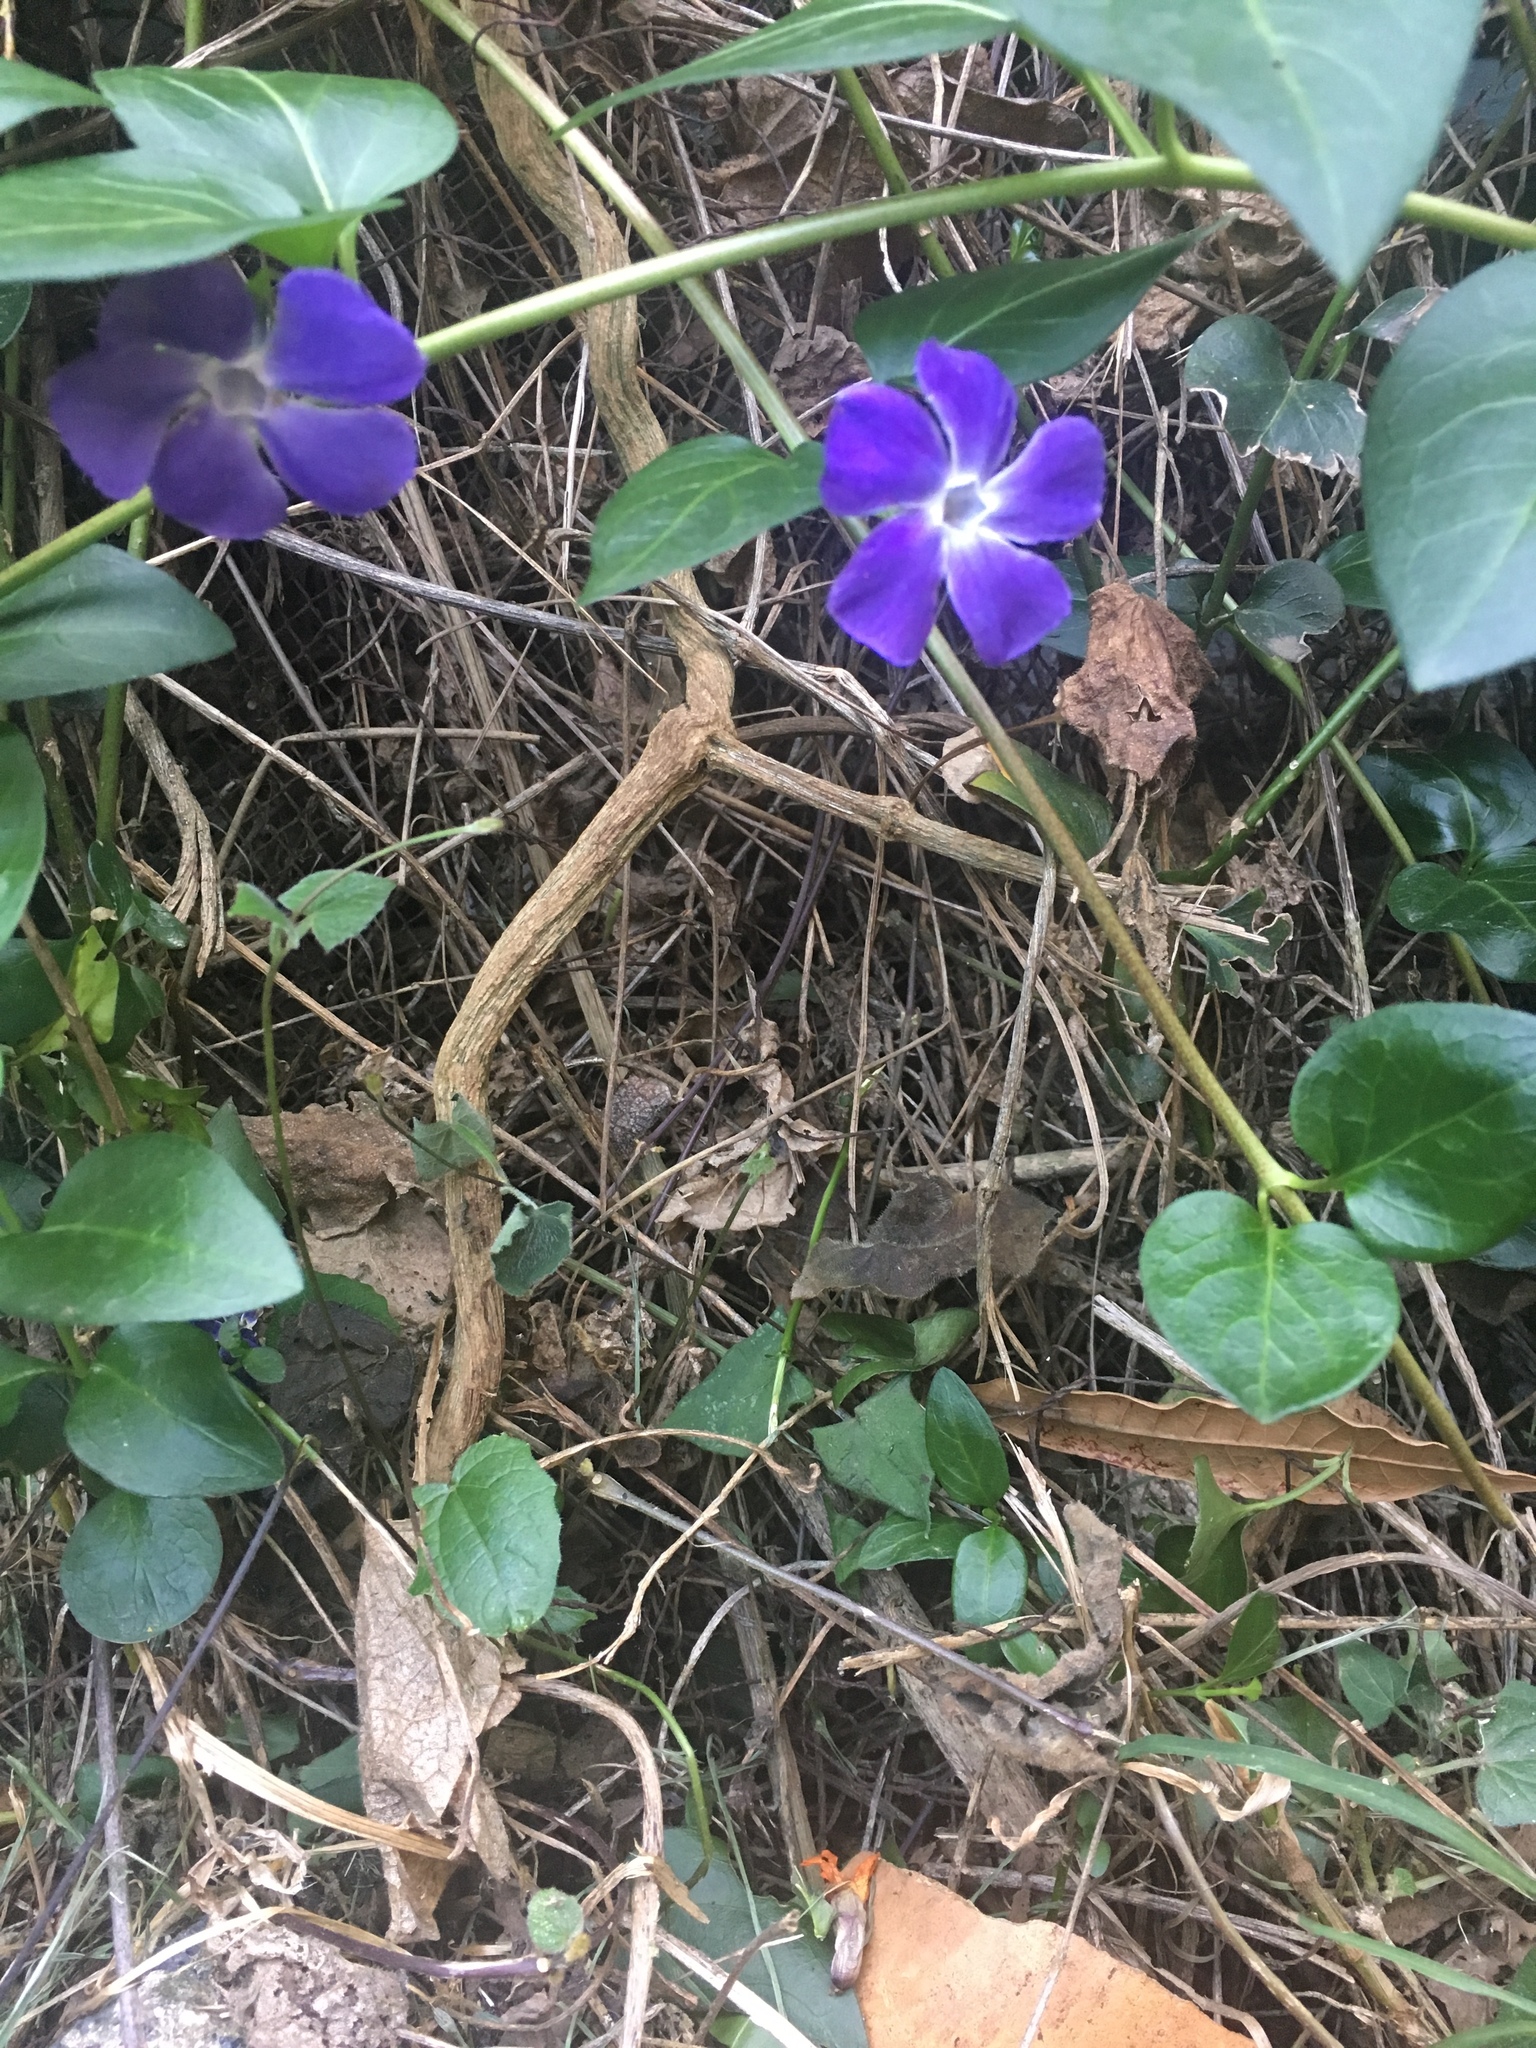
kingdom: Plantae
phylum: Tracheophyta
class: Magnoliopsida
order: Gentianales
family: Apocynaceae
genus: Vinca
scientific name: Vinca major
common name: Greater periwinkle
